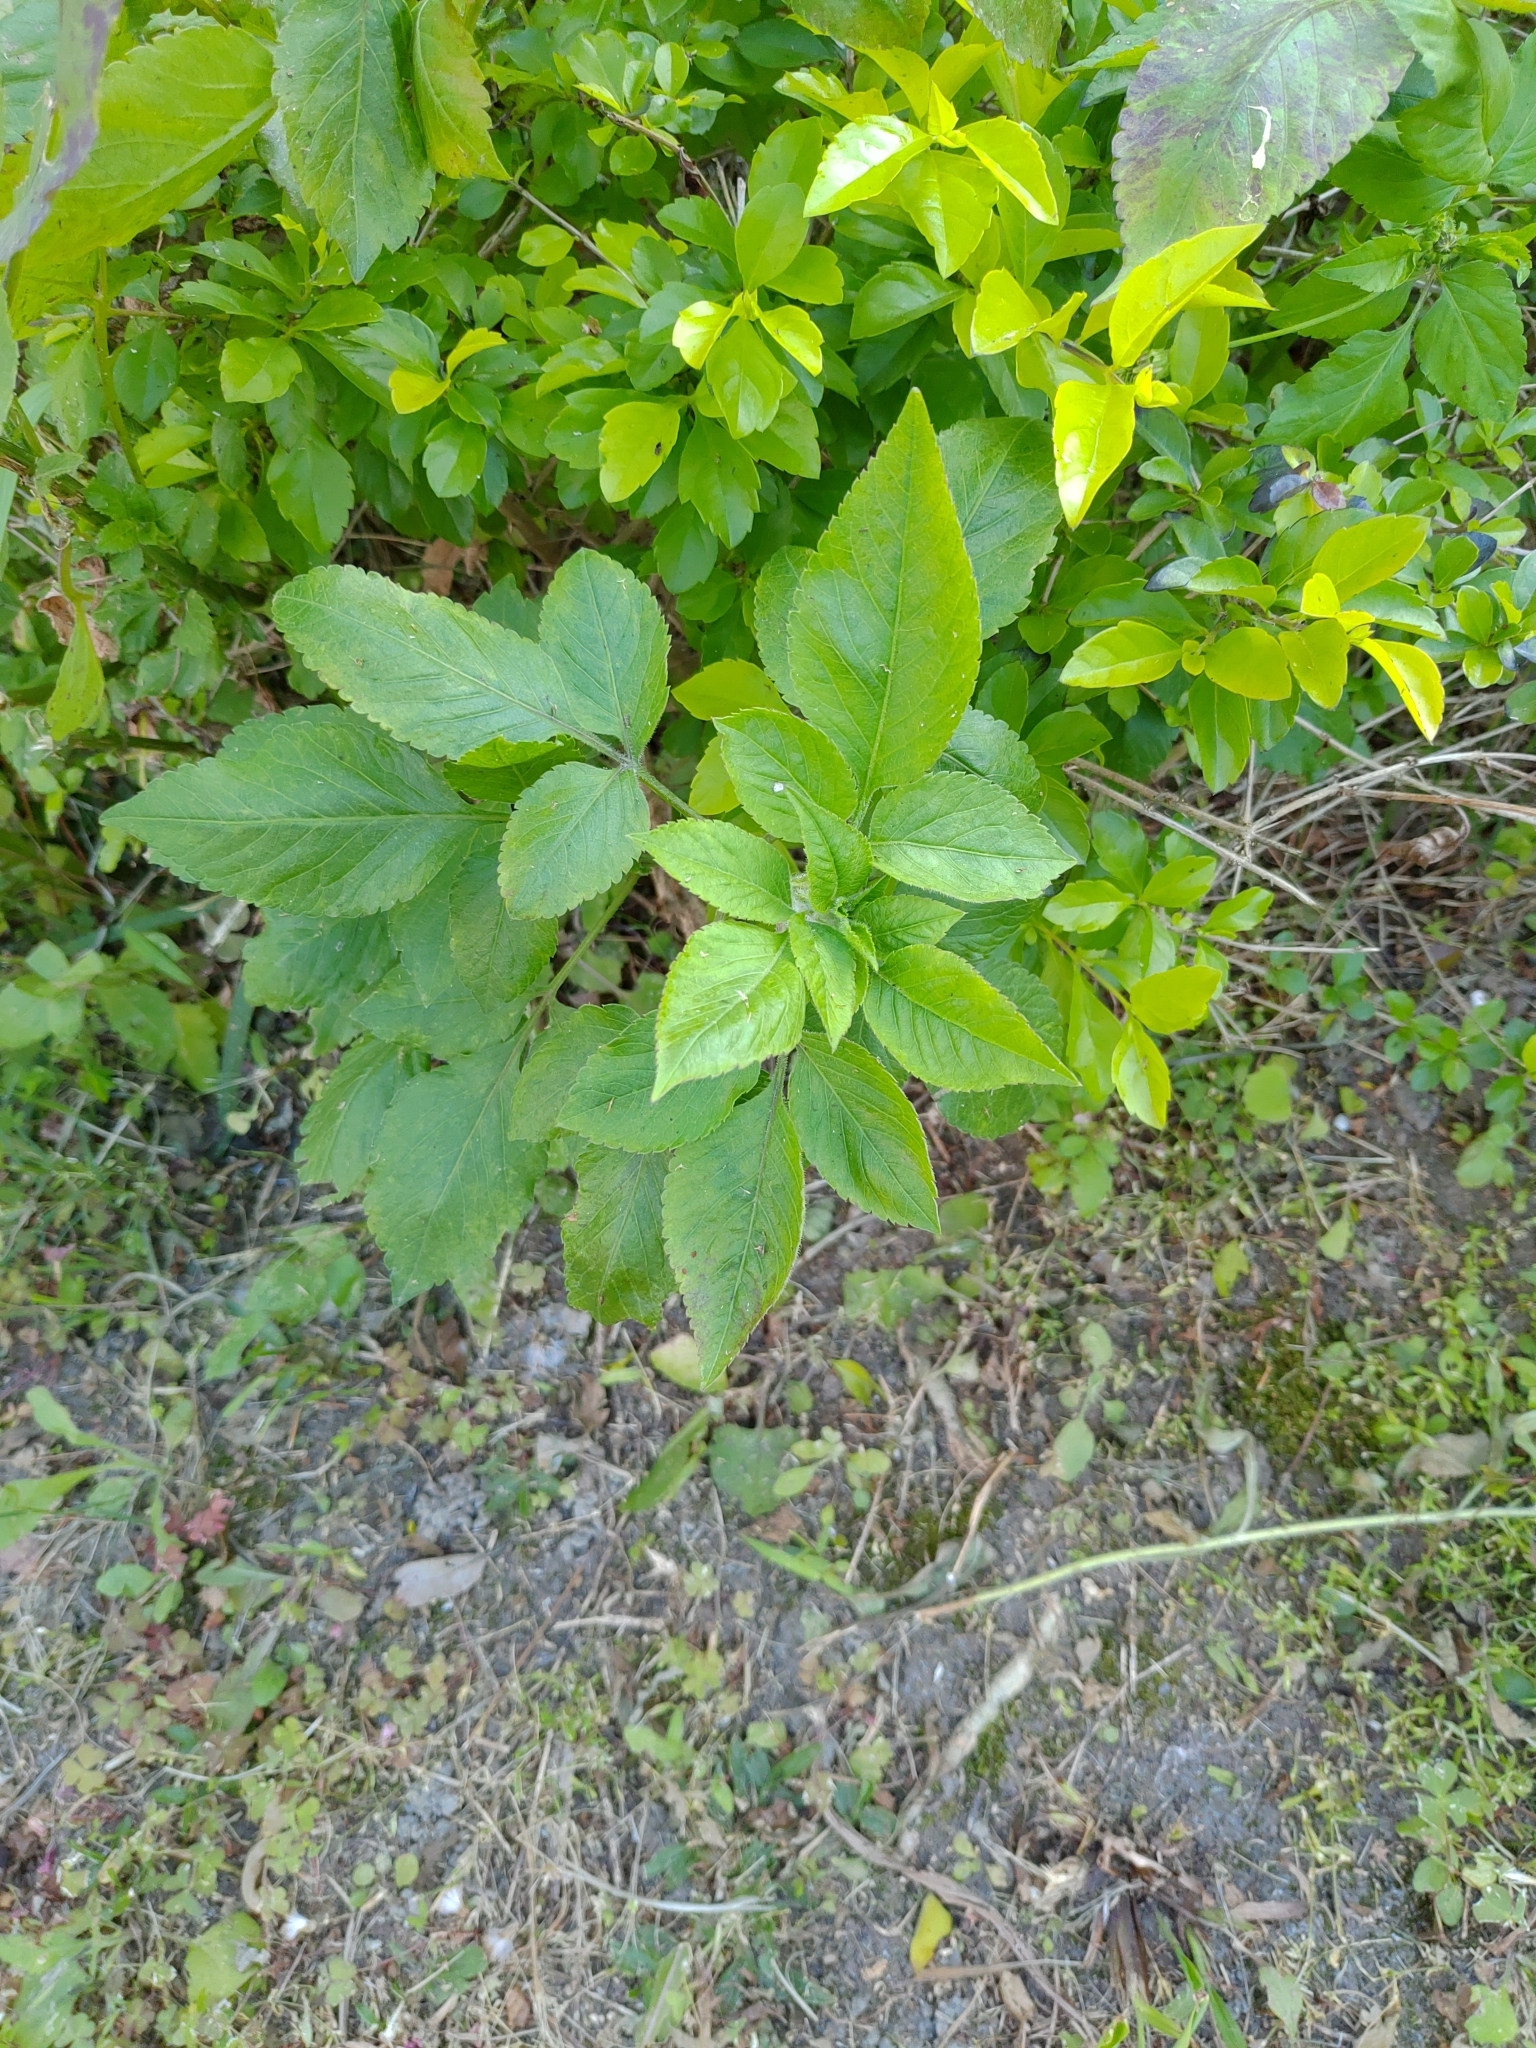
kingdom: Plantae
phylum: Tracheophyta
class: Magnoliopsida
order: Asterales
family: Asteraceae
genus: Bidens
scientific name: Bidens alba
